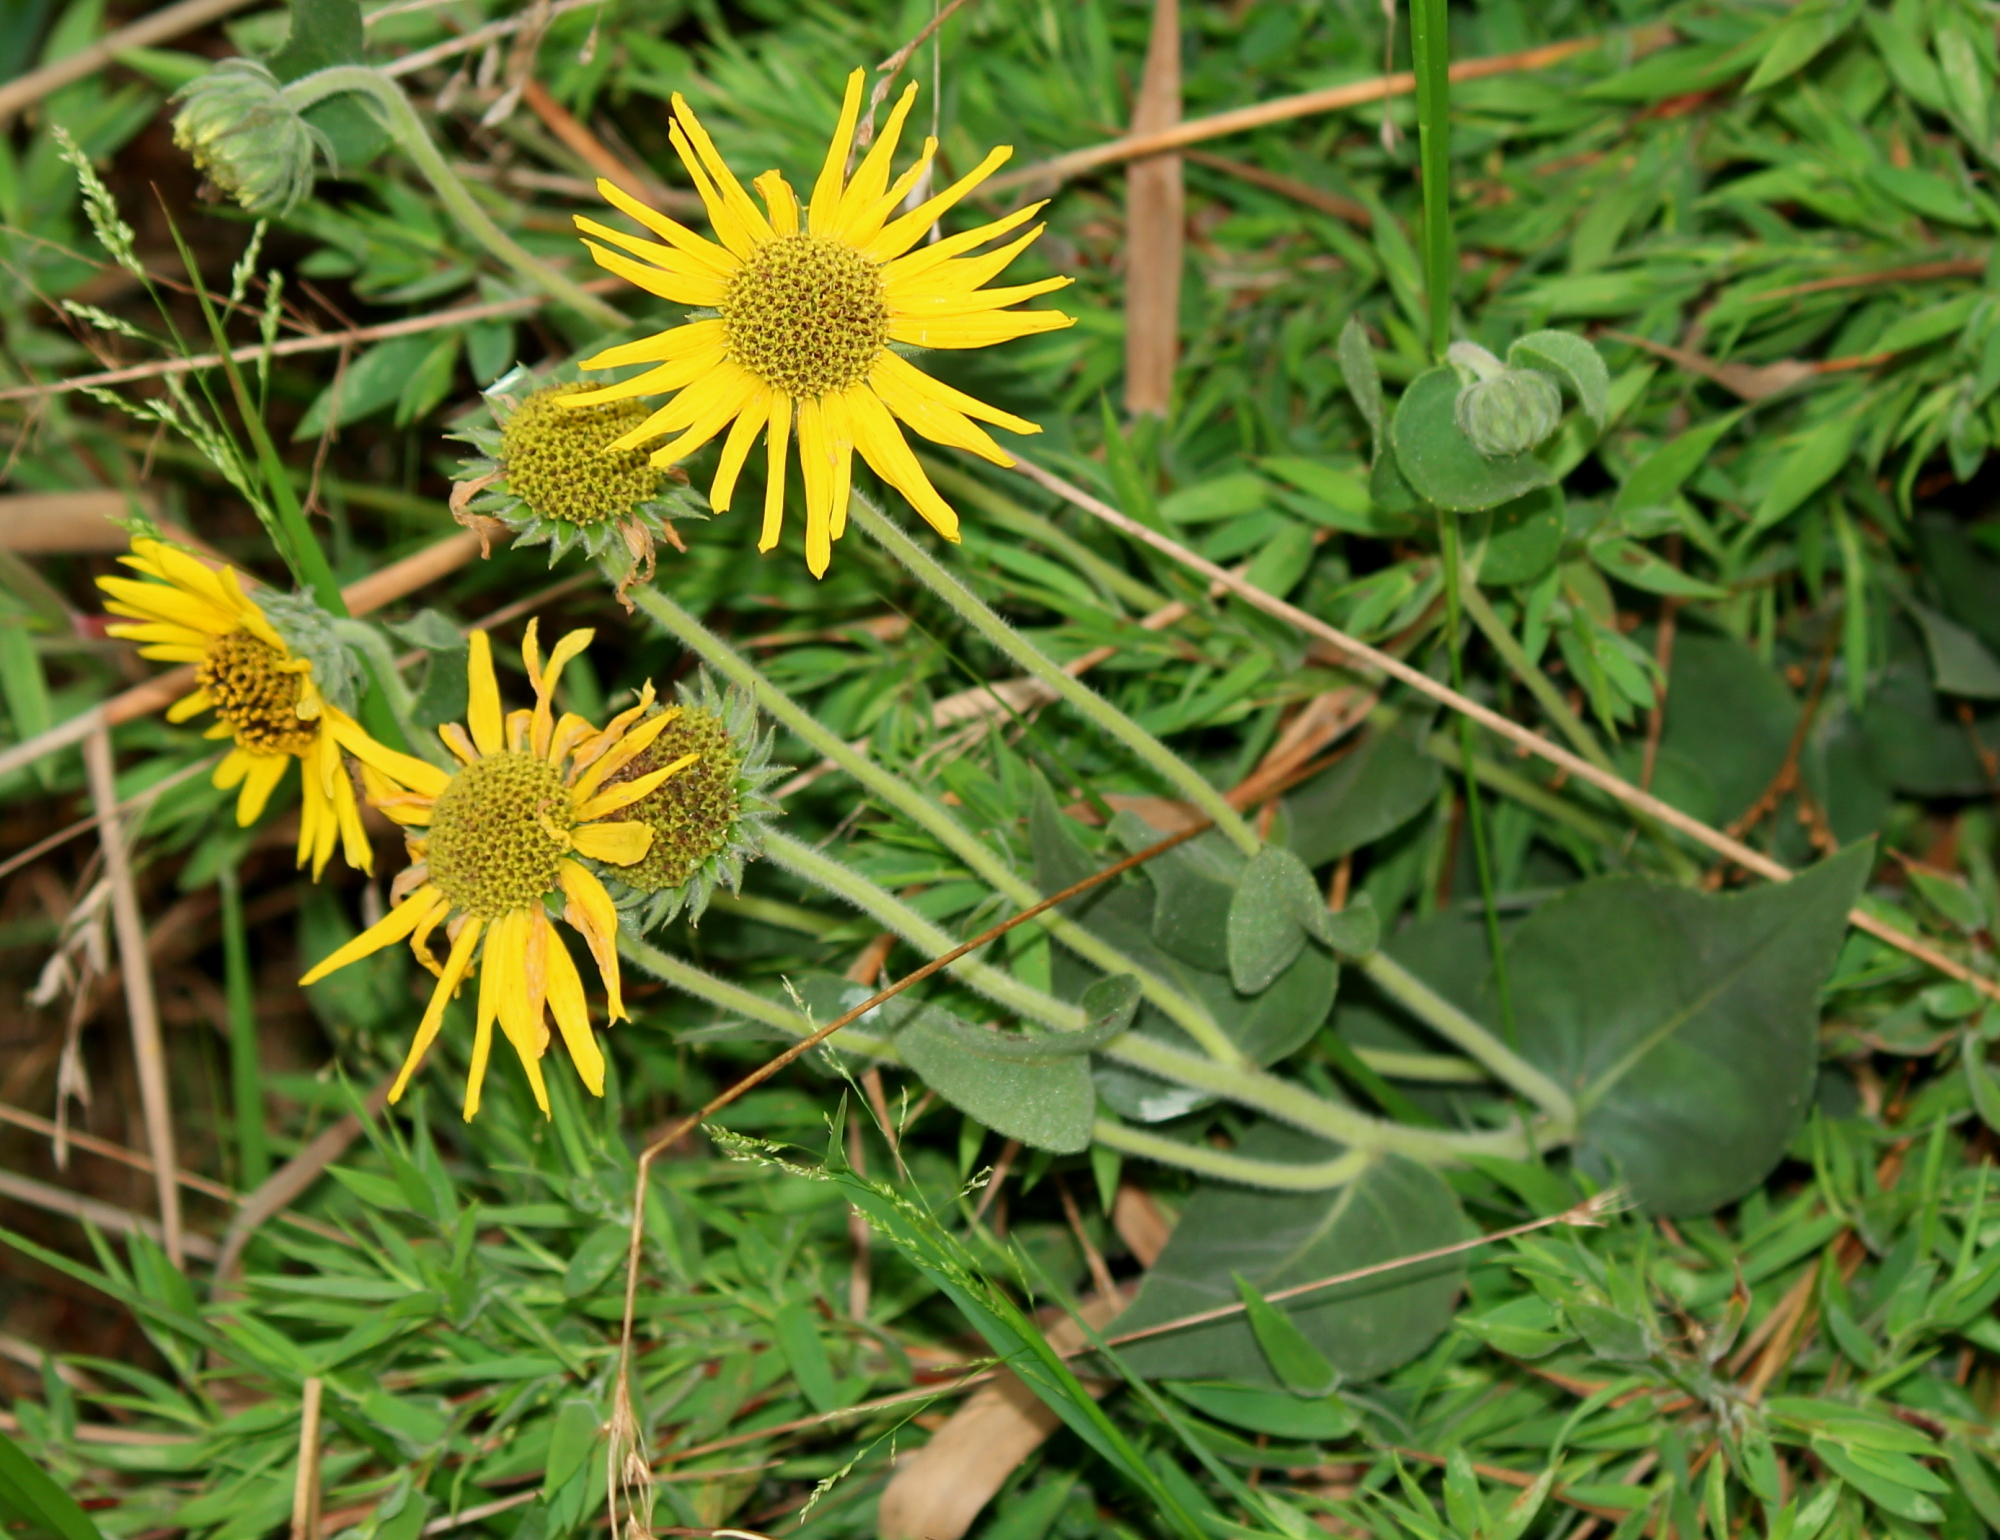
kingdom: Plantae
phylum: Tracheophyta
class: Magnoliopsida
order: Asterales
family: Asteraceae
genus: Helianthus
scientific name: Helianthus mollis
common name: Ashy sunflower
